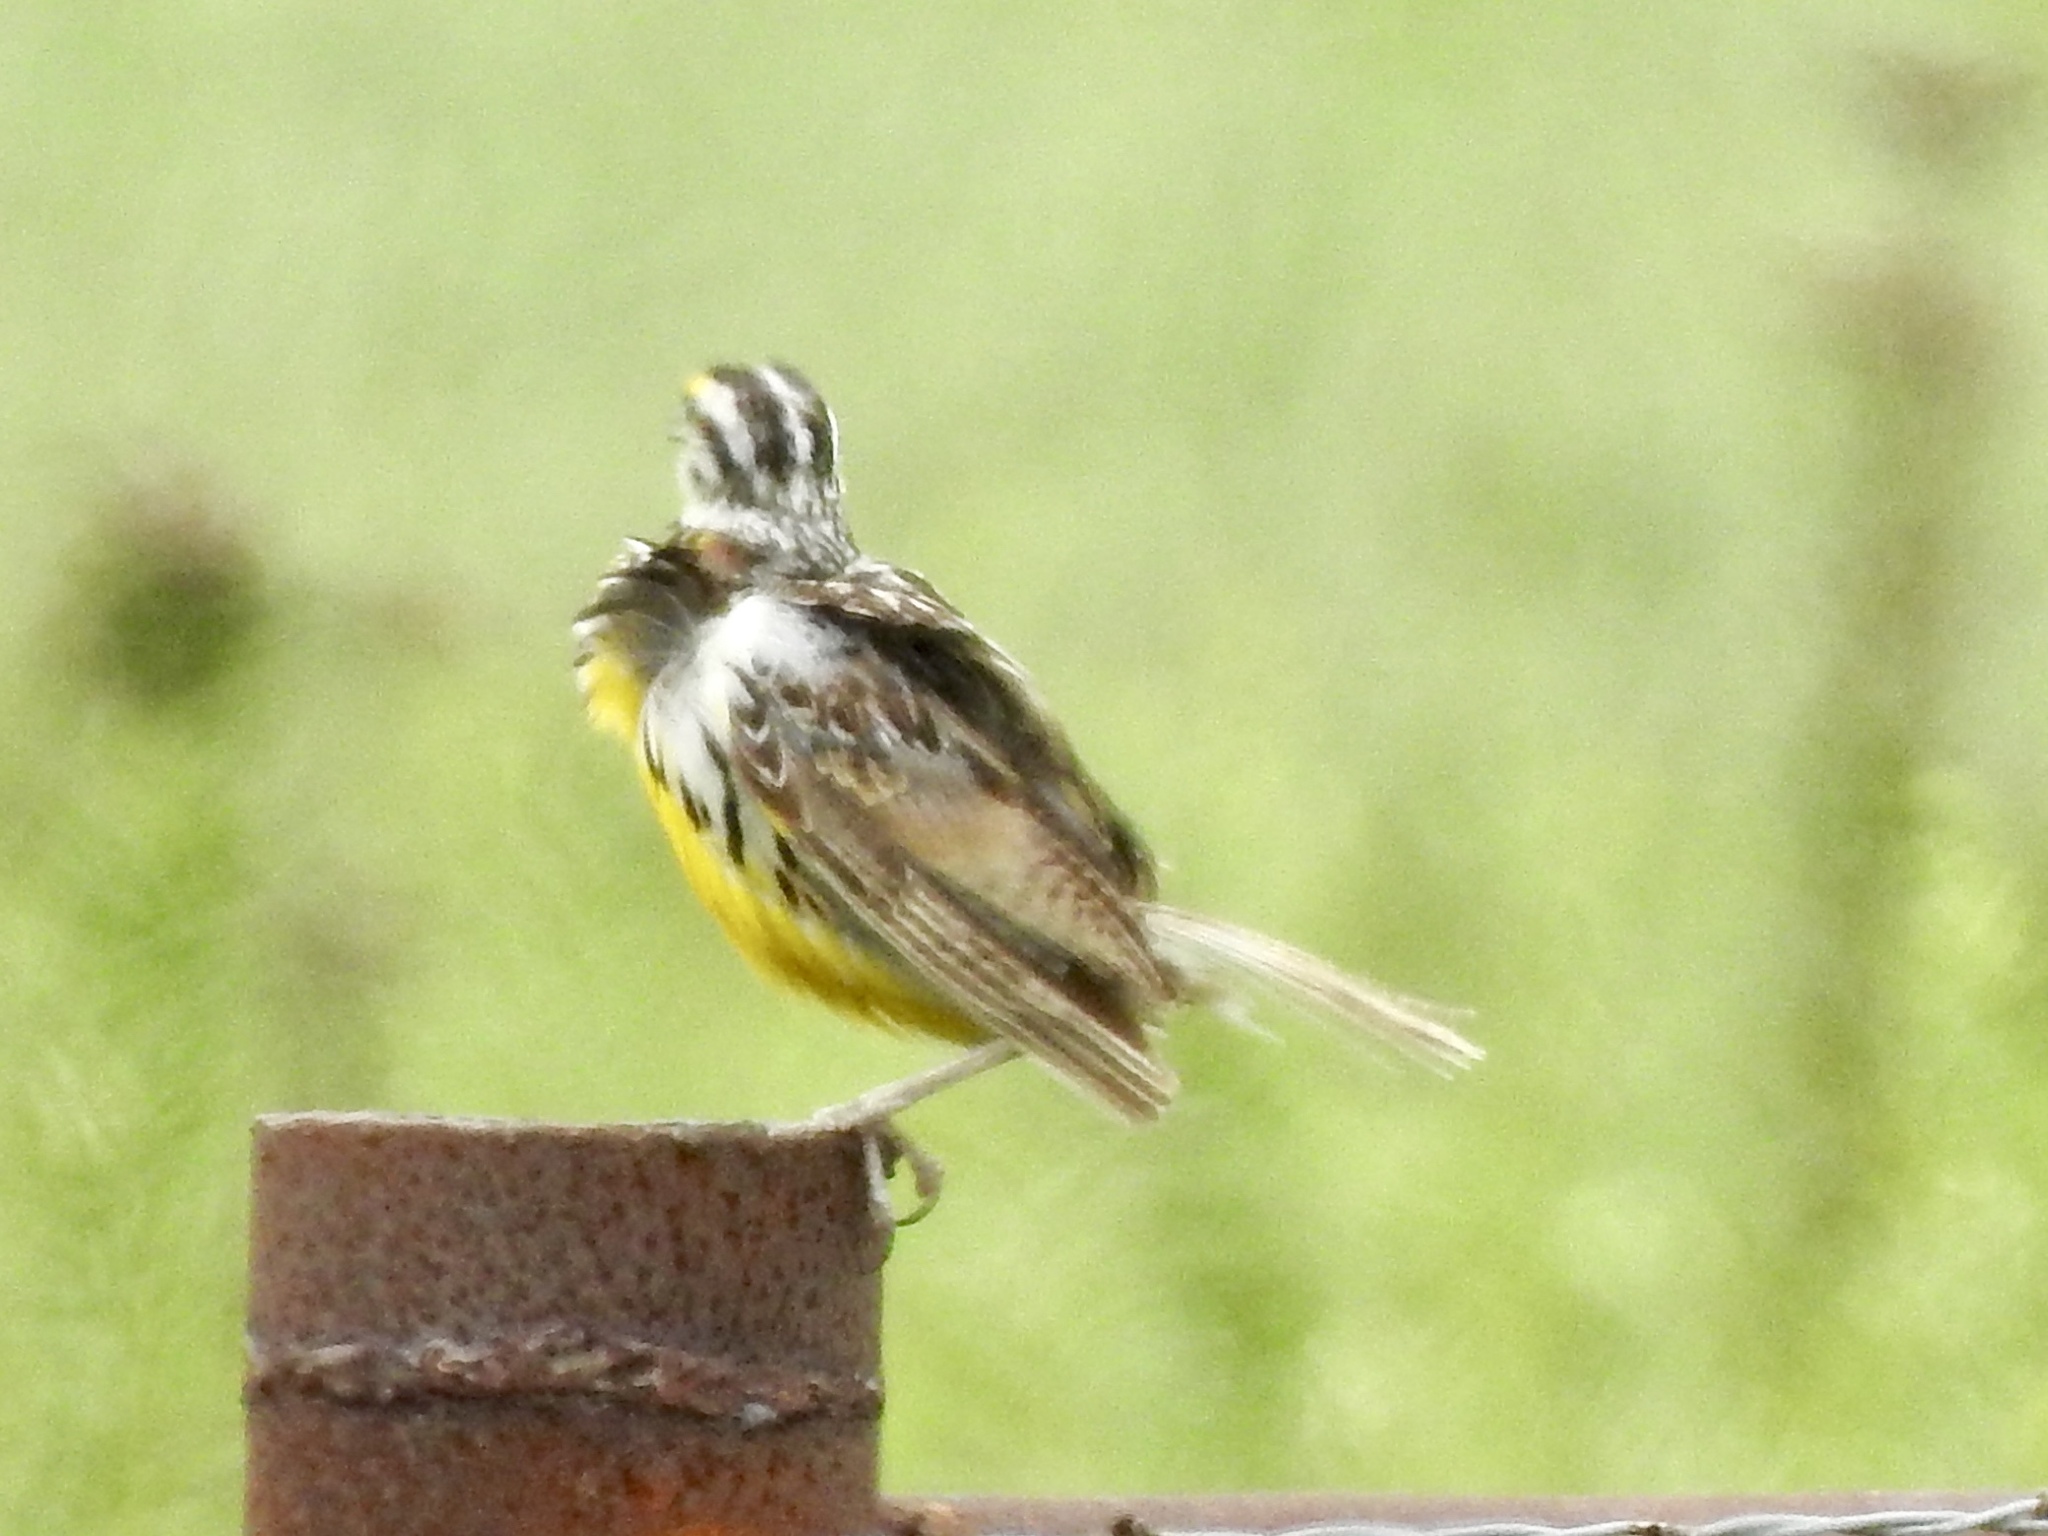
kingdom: Animalia
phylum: Chordata
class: Aves
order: Passeriformes
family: Icteridae
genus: Sturnella
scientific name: Sturnella neglecta
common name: Western meadowlark
